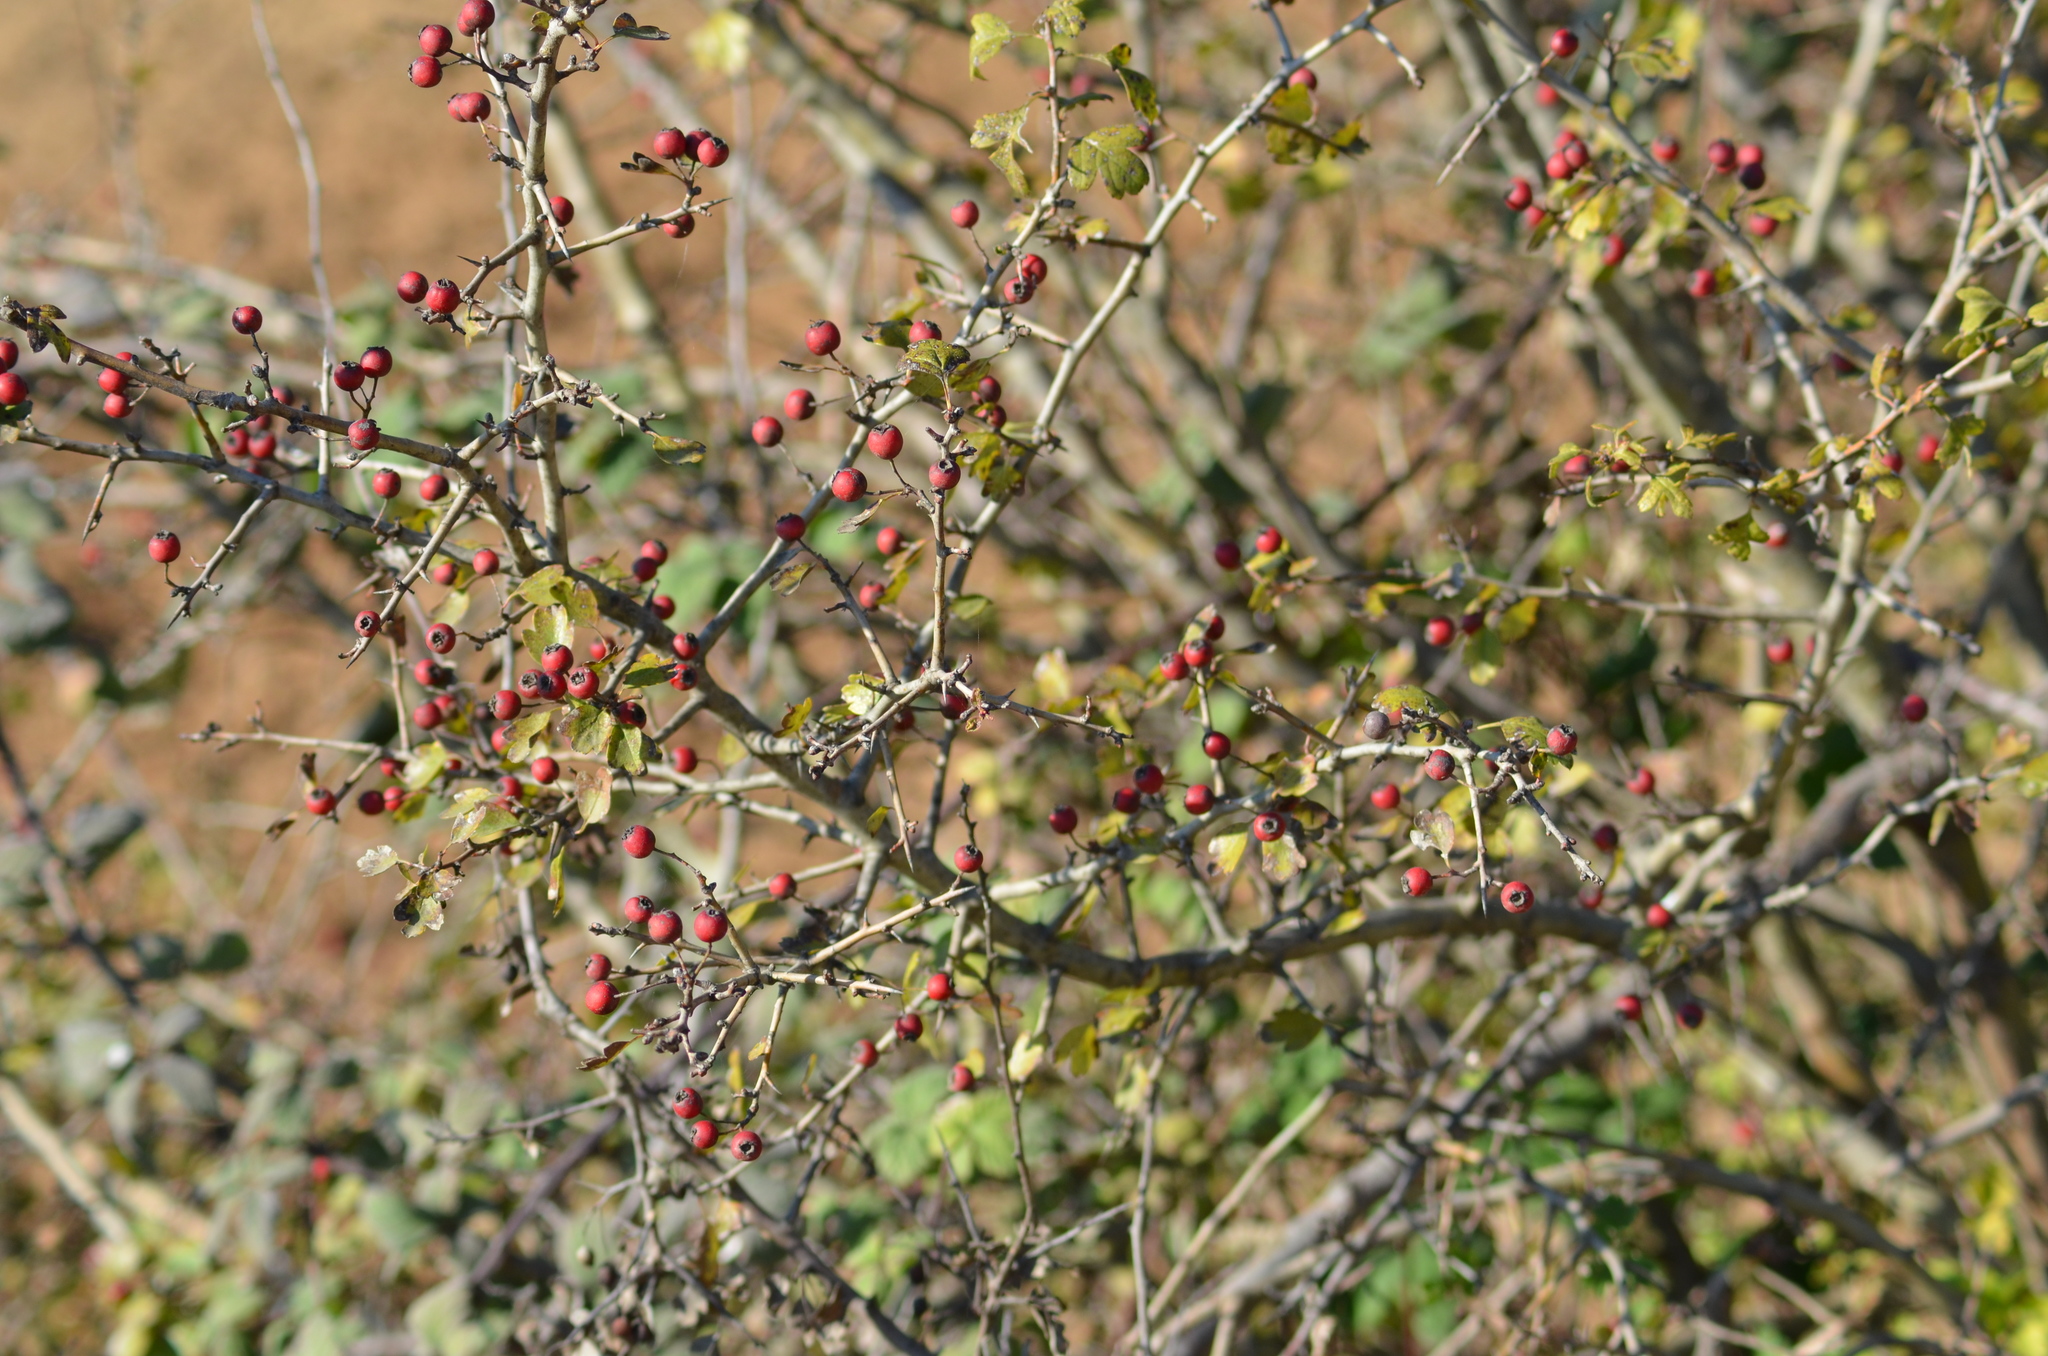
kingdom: Plantae
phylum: Tracheophyta
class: Magnoliopsida
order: Rosales
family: Rosaceae
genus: Crataegus
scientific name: Crataegus monogyna
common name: Hawthorn
